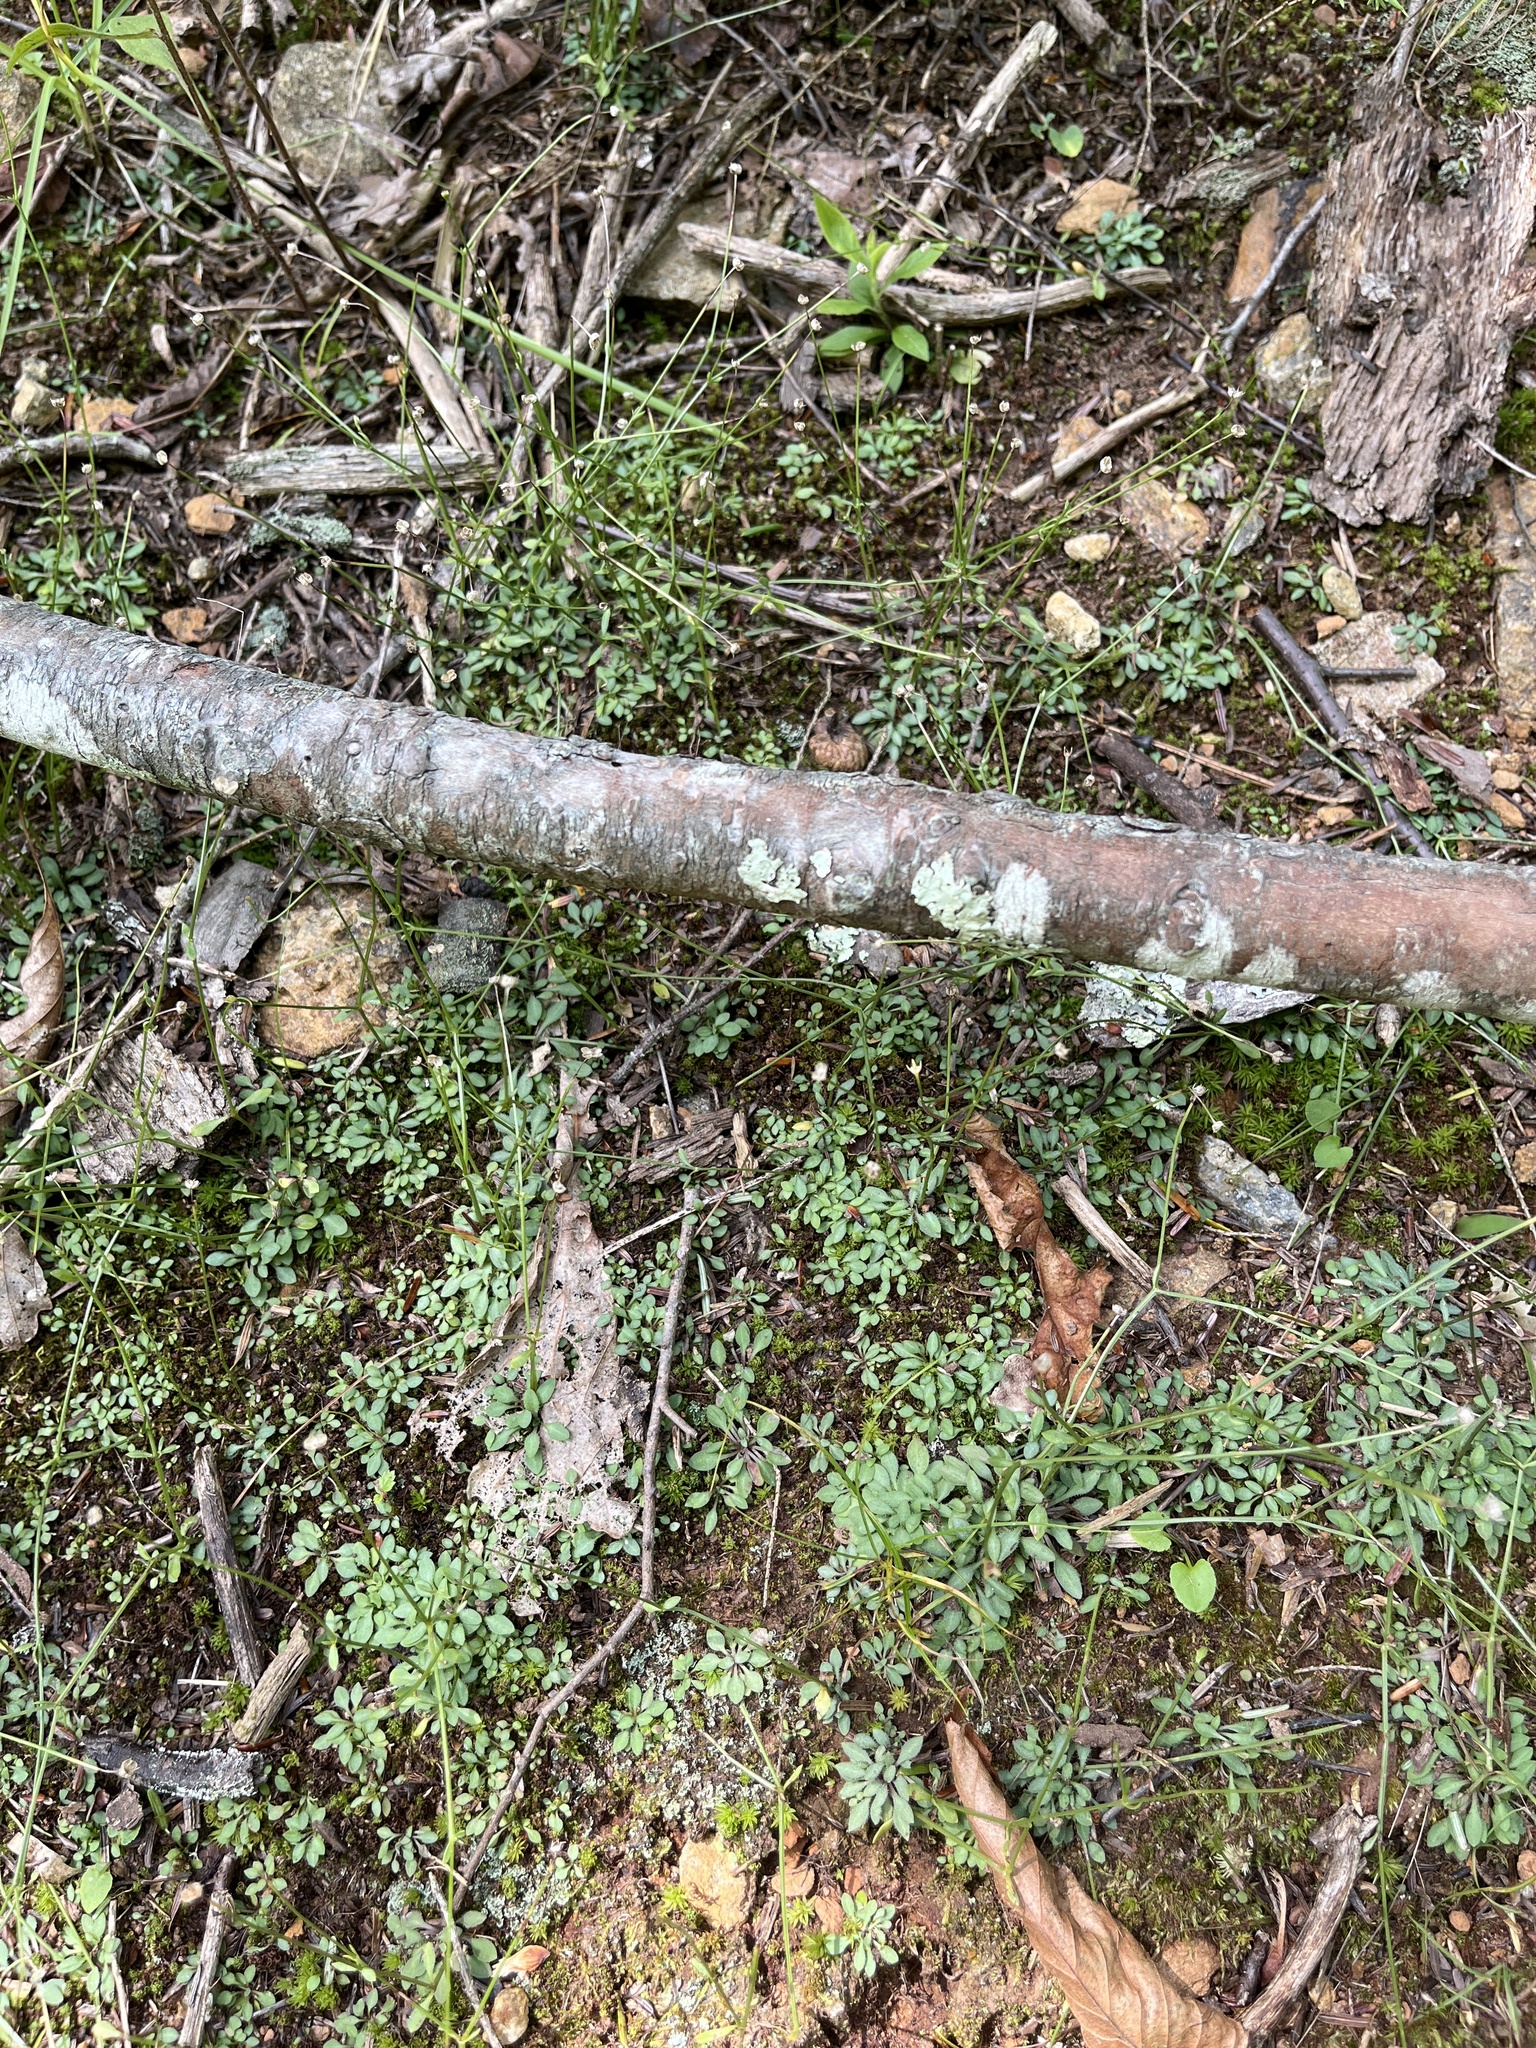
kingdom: Plantae
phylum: Tracheophyta
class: Magnoliopsida
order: Gentianales
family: Rubiaceae
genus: Houstonia
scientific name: Houstonia caerulea
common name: Bluets
